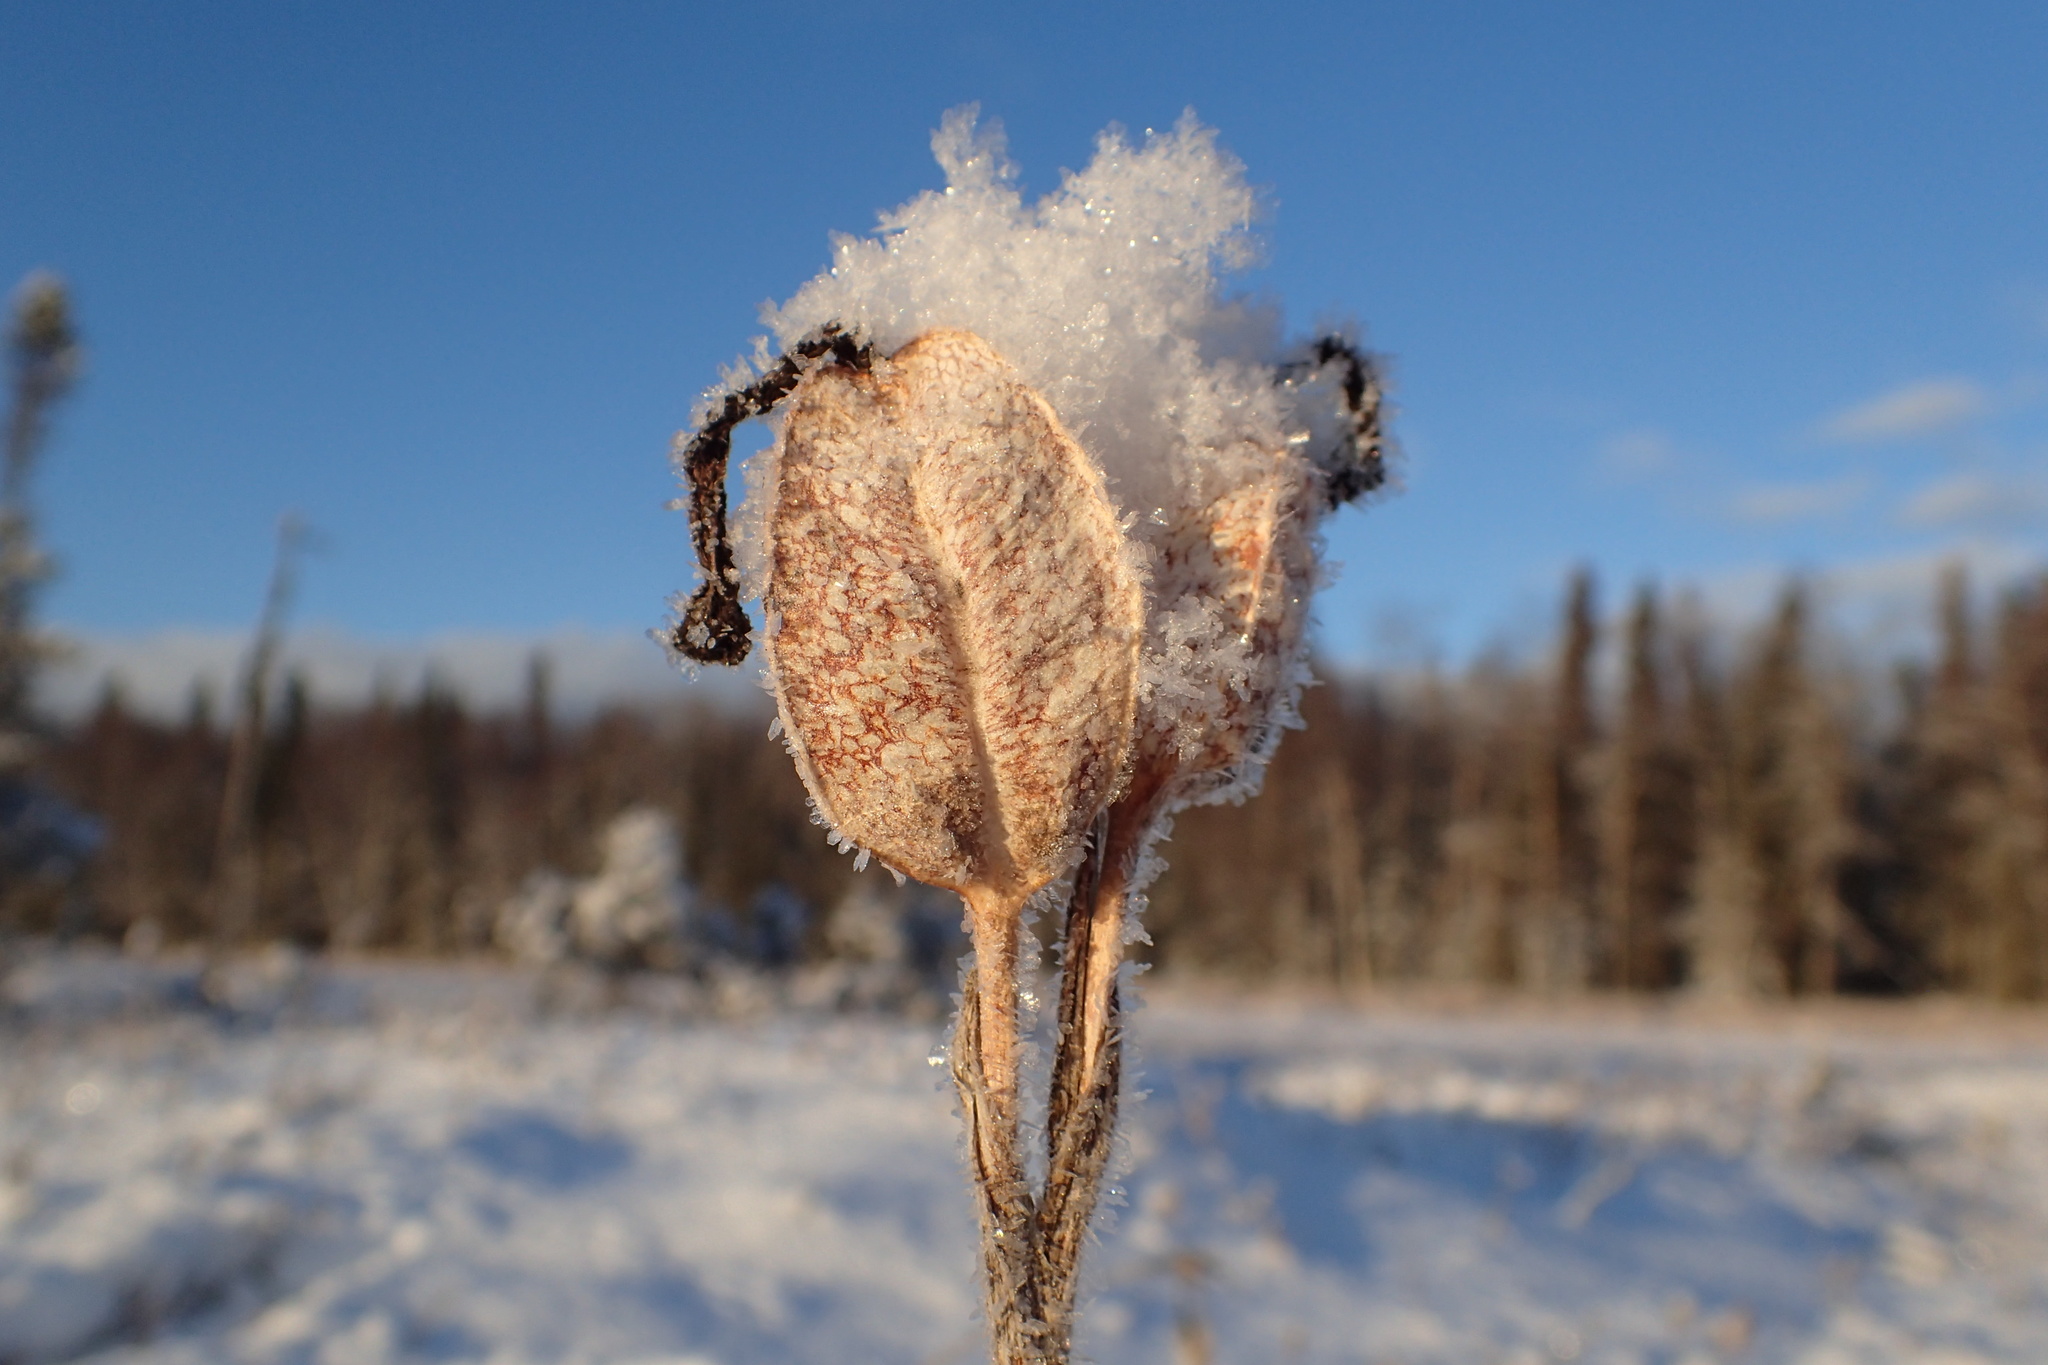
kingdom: Plantae
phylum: Tracheophyta
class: Liliopsida
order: Asparagales
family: Iridaceae
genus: Iris
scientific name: Iris setosa
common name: Arctic blue flag
